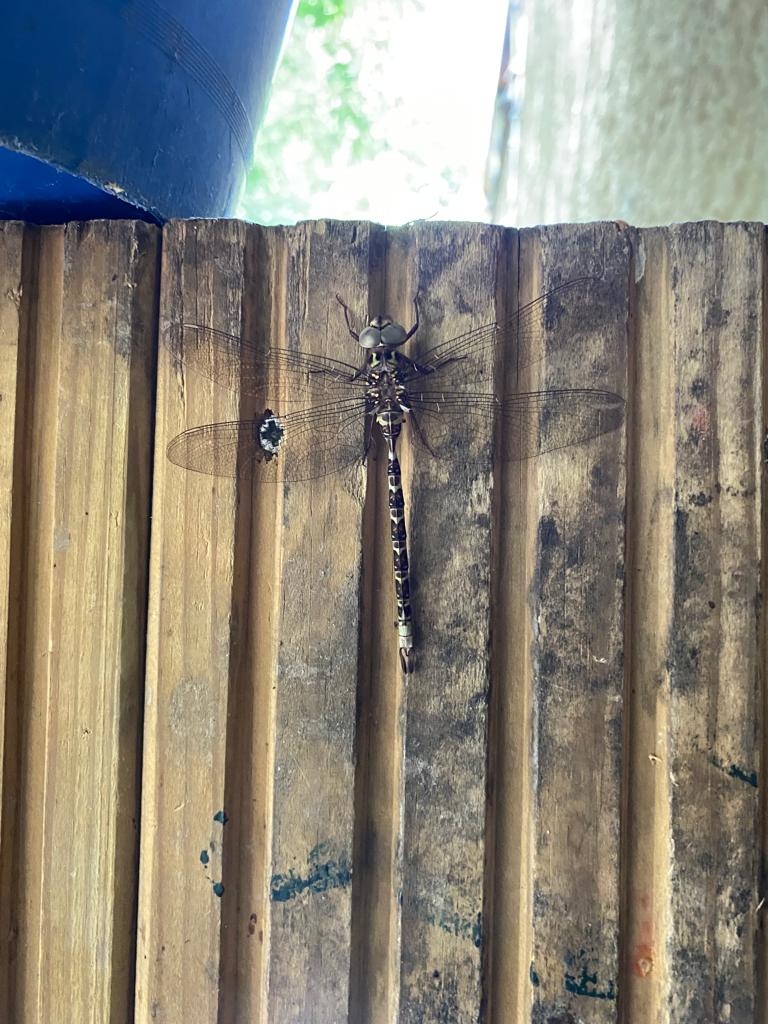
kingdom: Animalia
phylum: Arthropoda
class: Insecta
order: Odonata
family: Aeshnidae
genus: Boyeria
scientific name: Boyeria irene
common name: Western spectre
